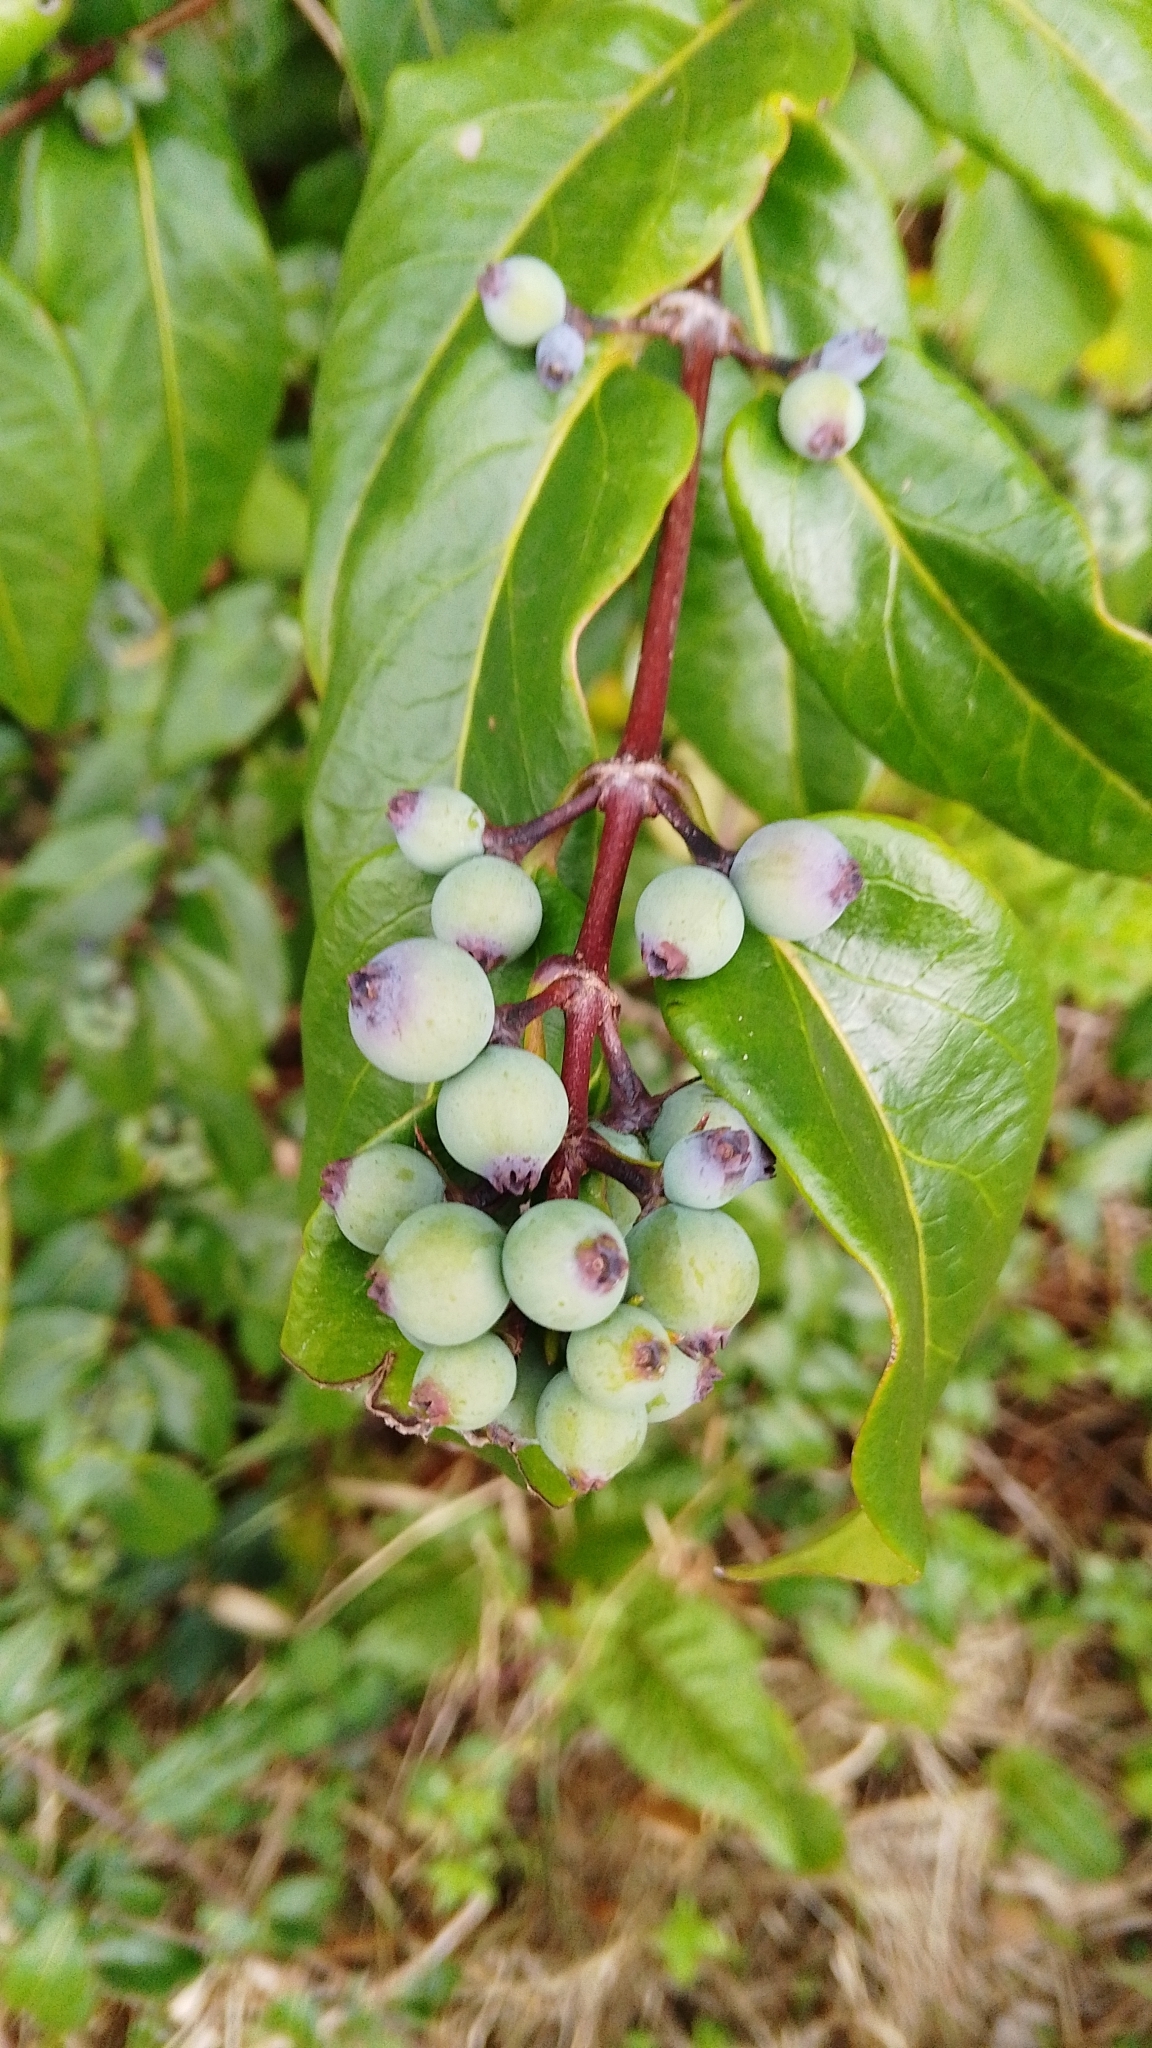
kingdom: Plantae
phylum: Tracheophyta
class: Magnoliopsida
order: Dipsacales
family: Caprifoliaceae
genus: Lonicera
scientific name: Lonicera acuminata
